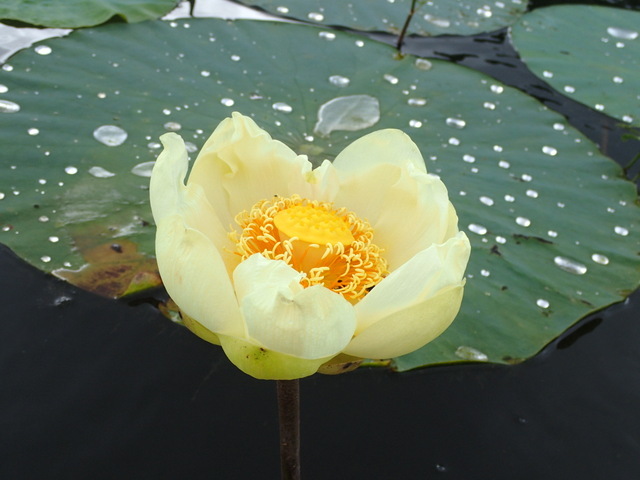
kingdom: Plantae
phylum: Tracheophyta
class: Magnoliopsida
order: Proteales
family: Nelumbonaceae
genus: Nelumbo
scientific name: Nelumbo lutea
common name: American lotus
